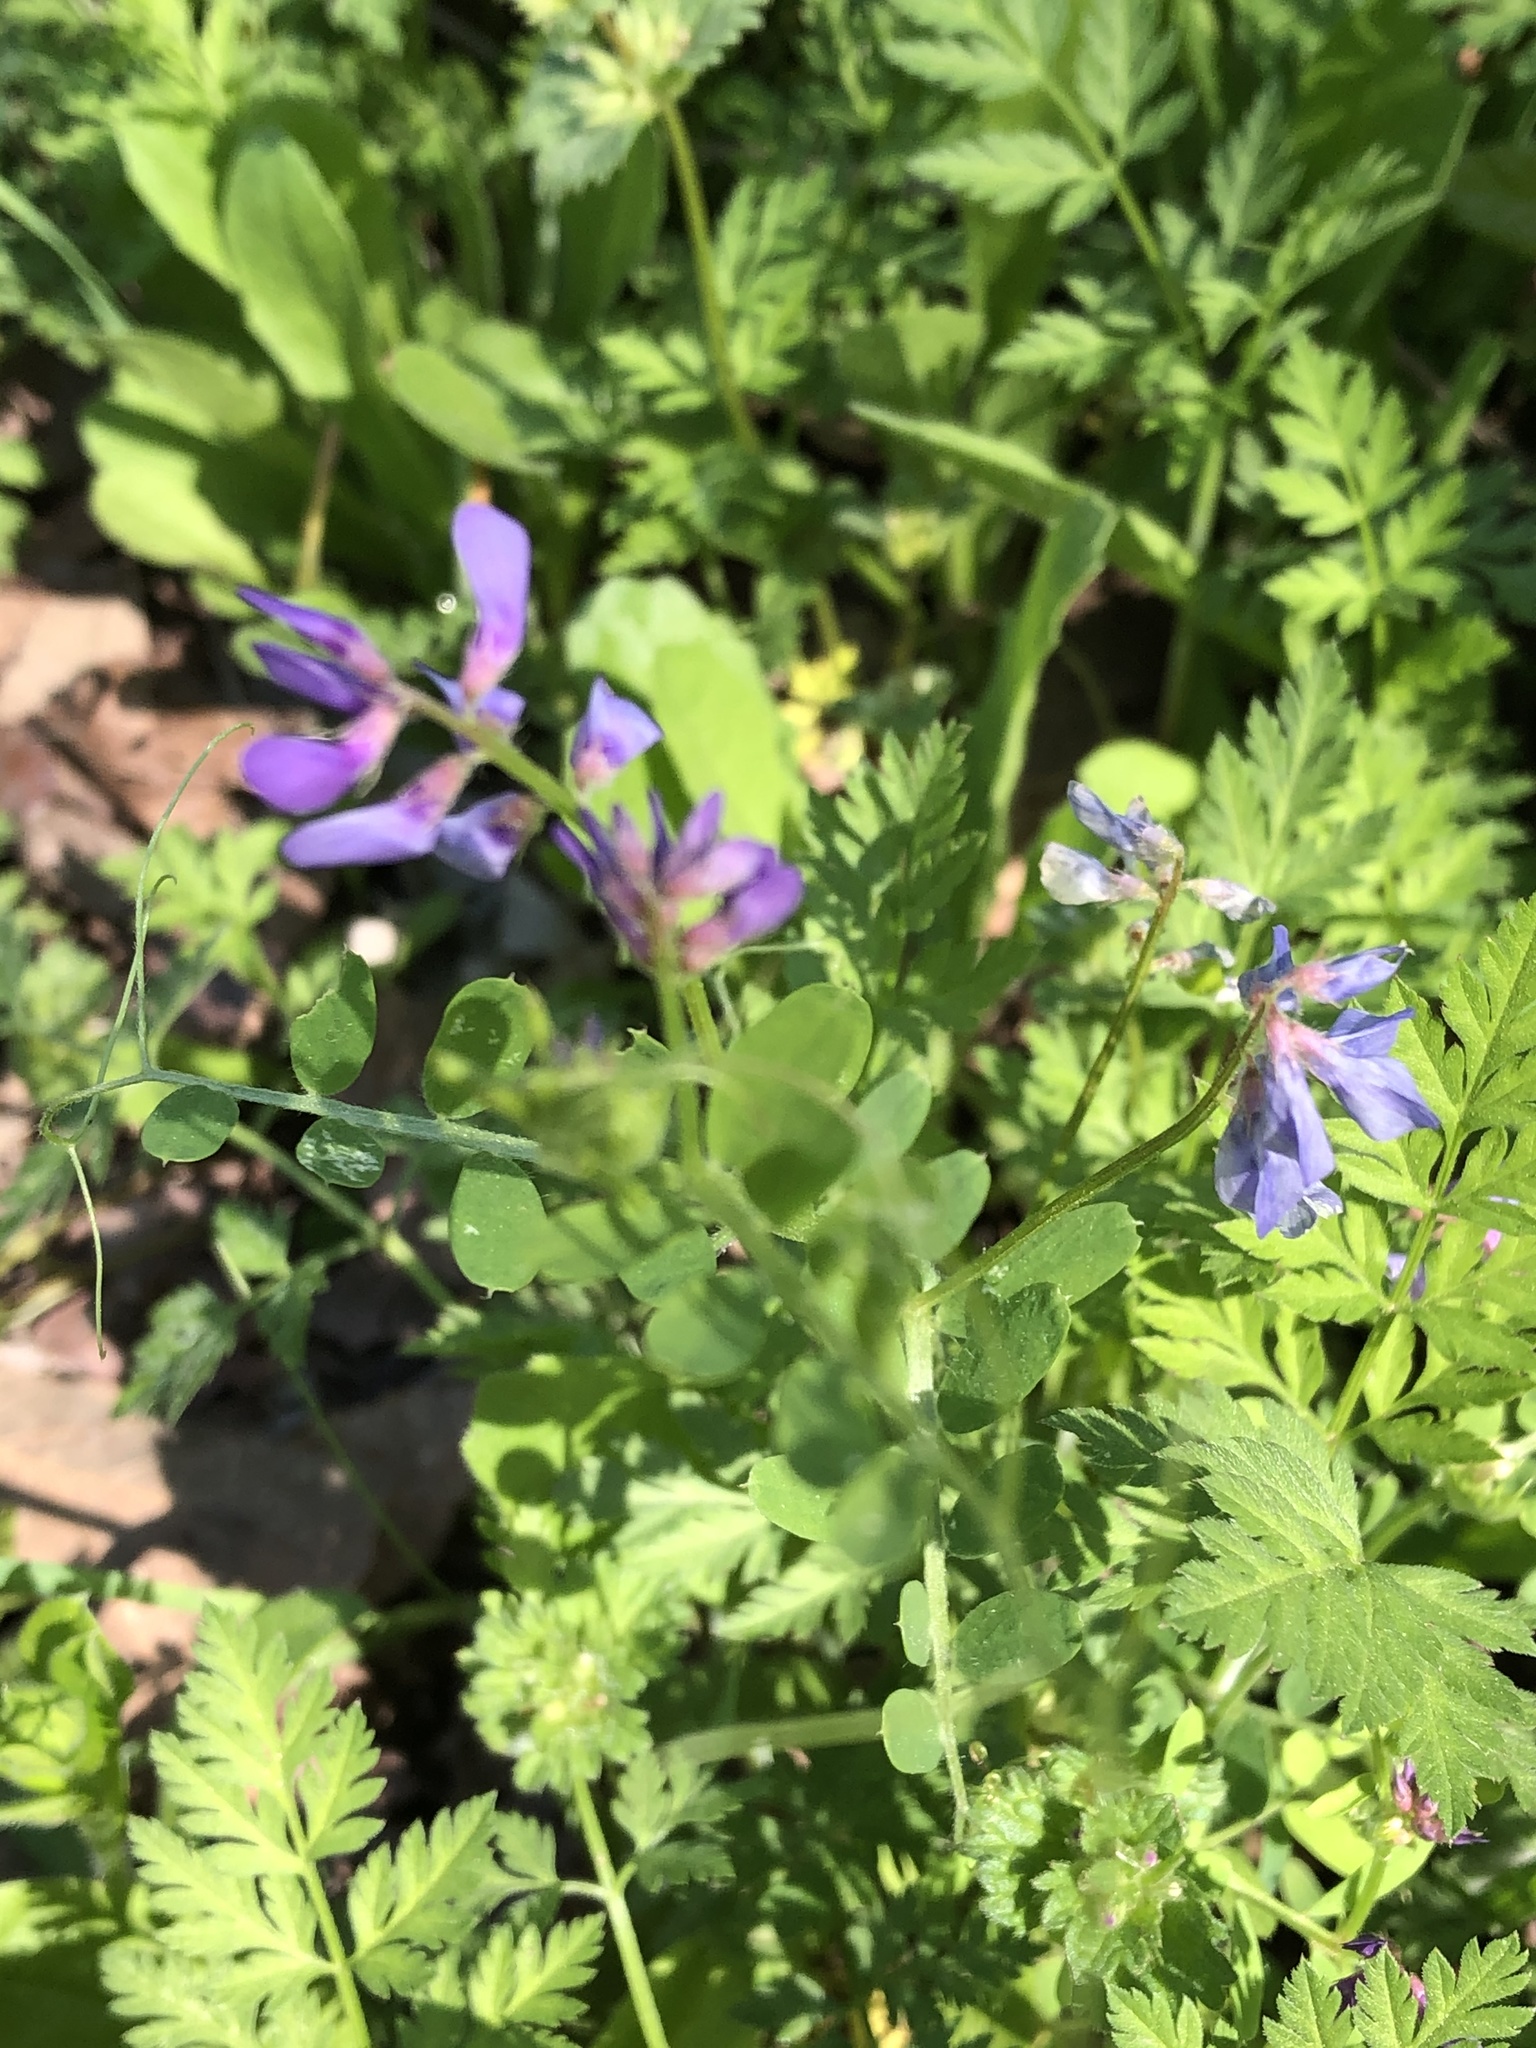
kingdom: Plantae
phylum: Tracheophyta
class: Magnoliopsida
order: Fabales
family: Fabaceae
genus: Vicia
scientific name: Vicia ludoviciana
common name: Louisiana vetch
